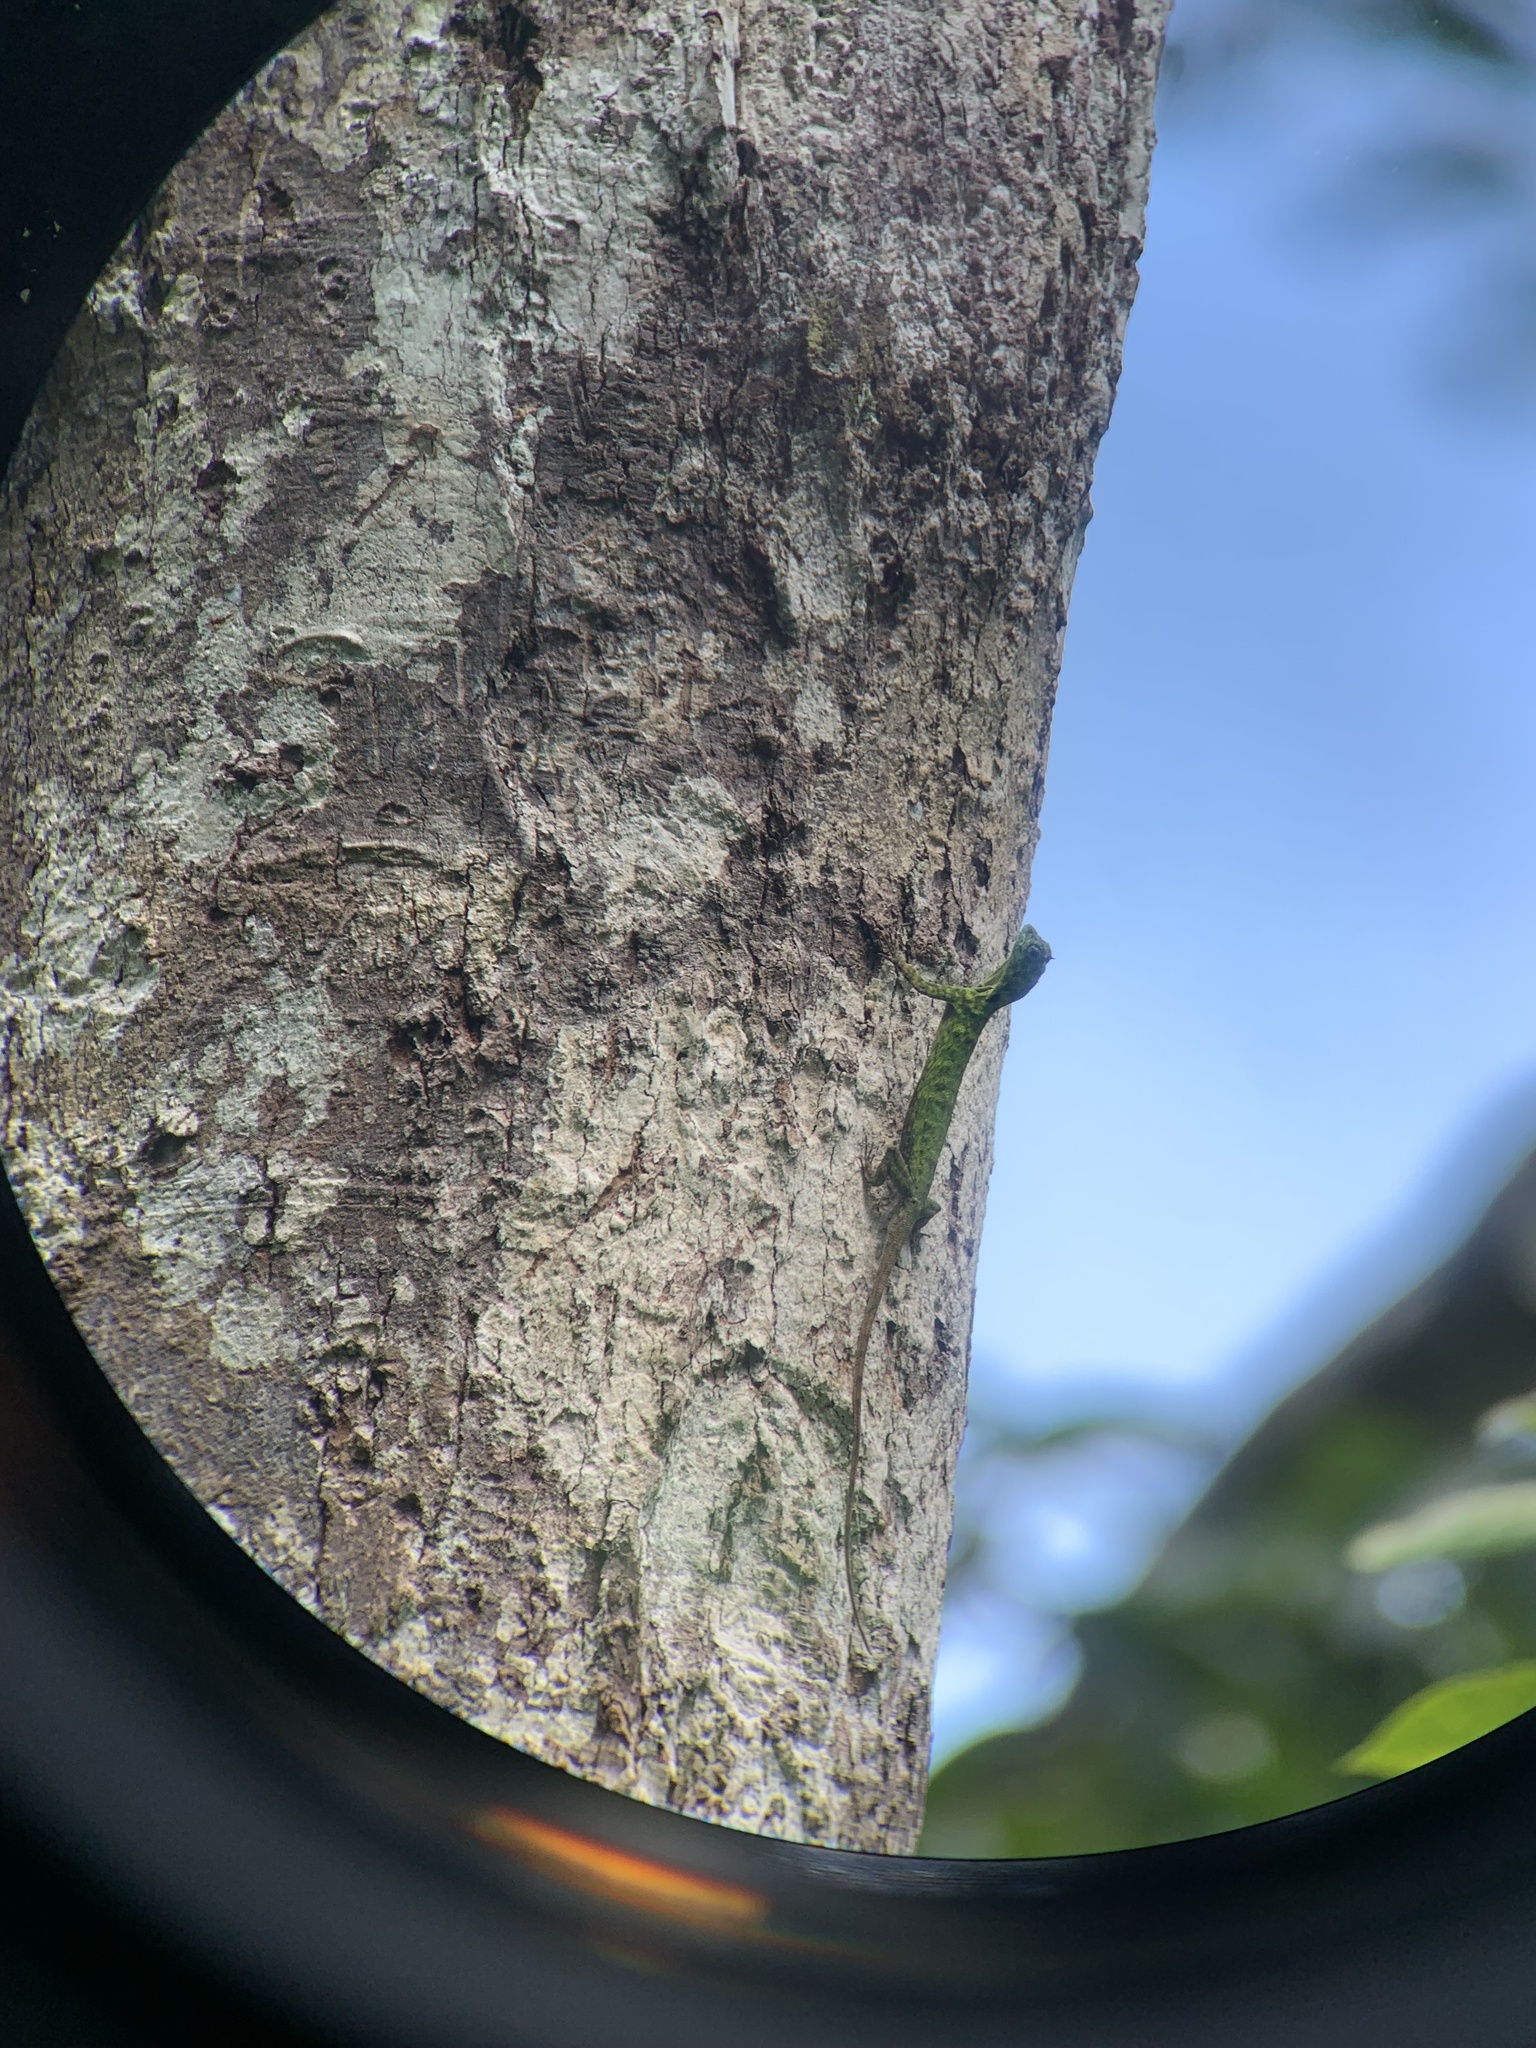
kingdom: Animalia
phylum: Chordata
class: Squamata
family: Agamidae
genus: Draco
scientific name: Draco cornutus
